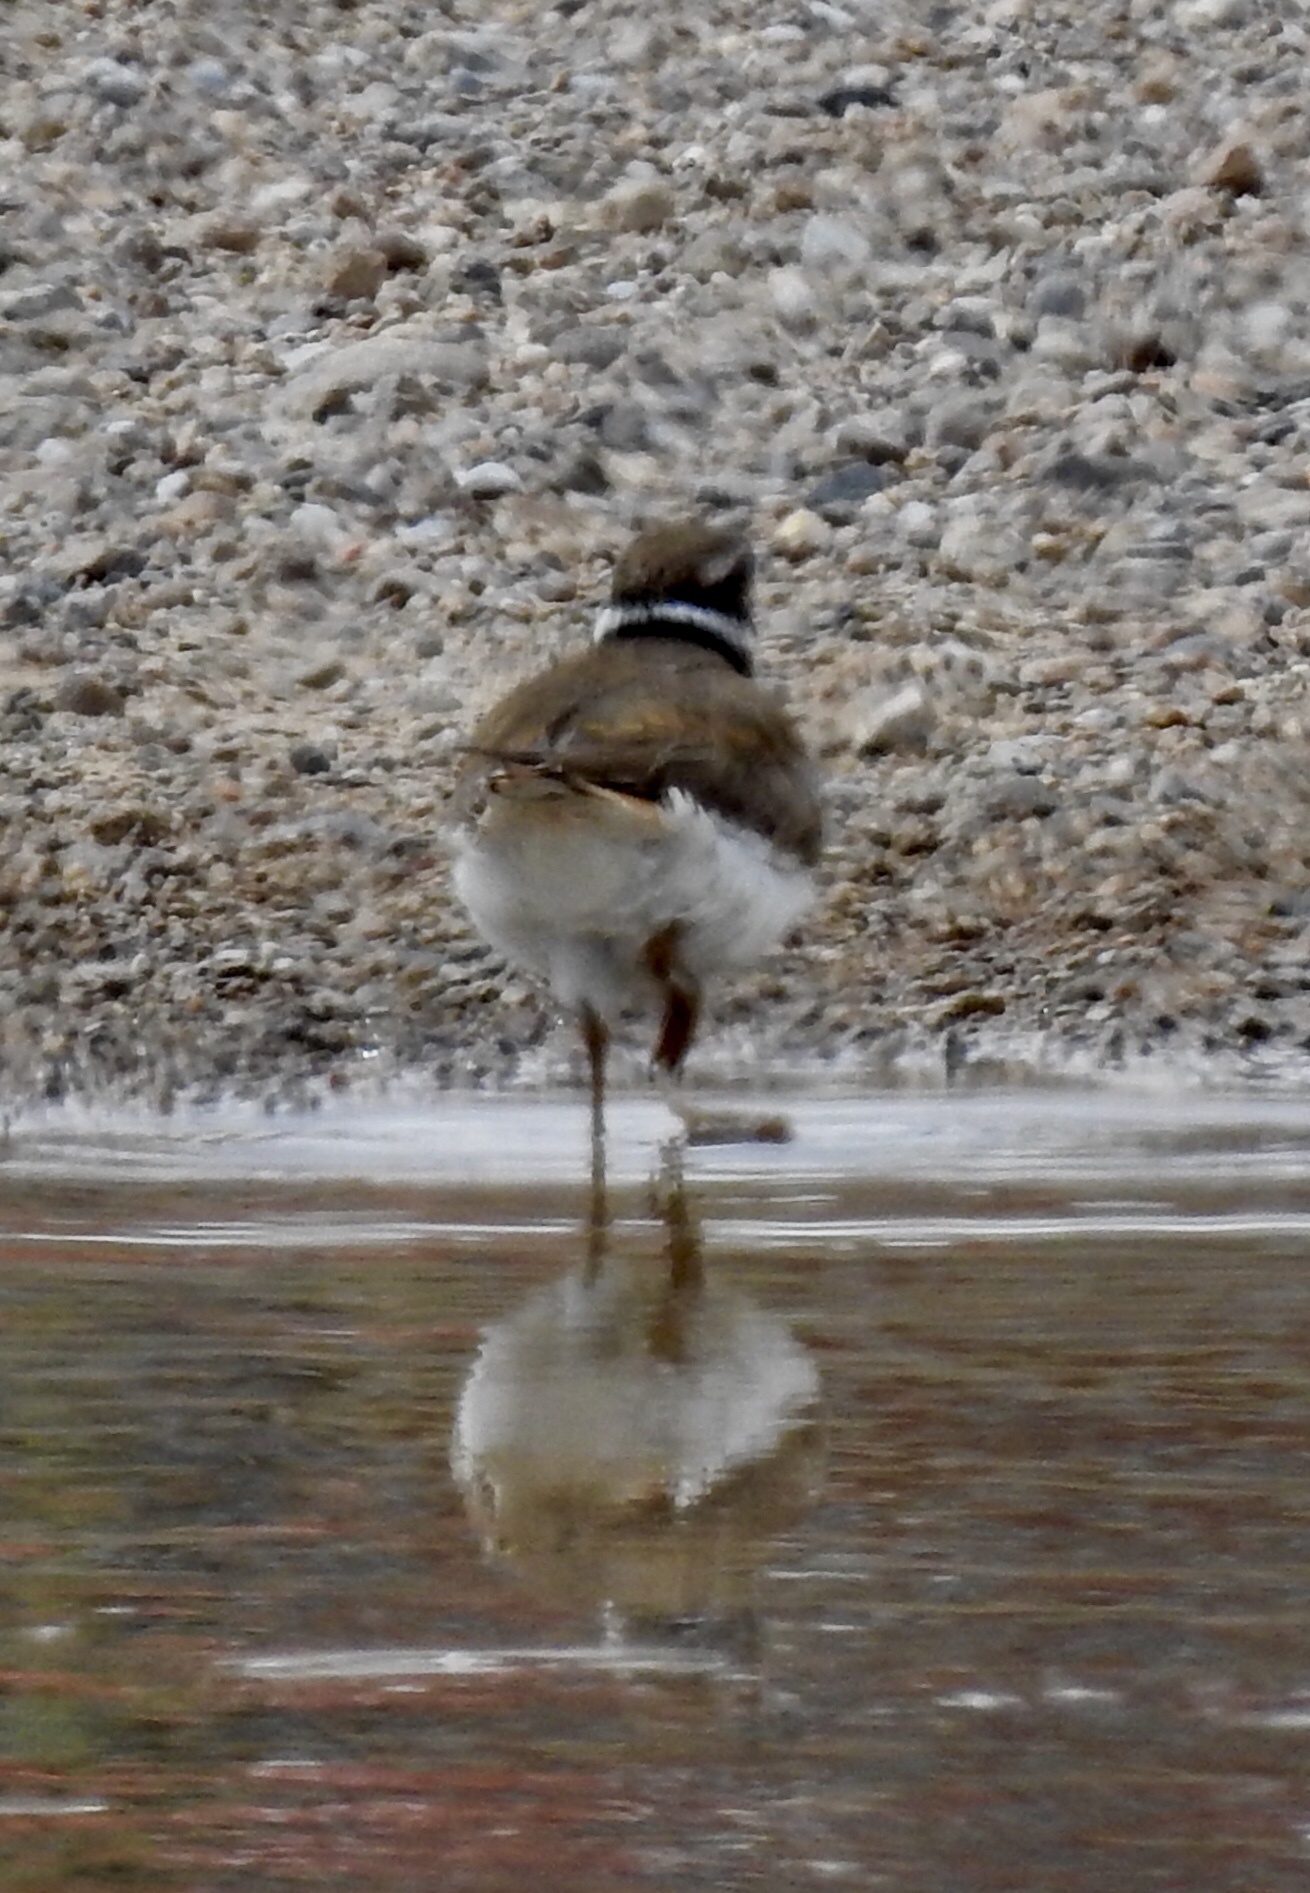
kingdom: Animalia
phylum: Chordata
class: Aves
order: Charadriiformes
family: Charadriidae
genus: Charadrius
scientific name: Charadrius vociferus
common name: Killdeer
